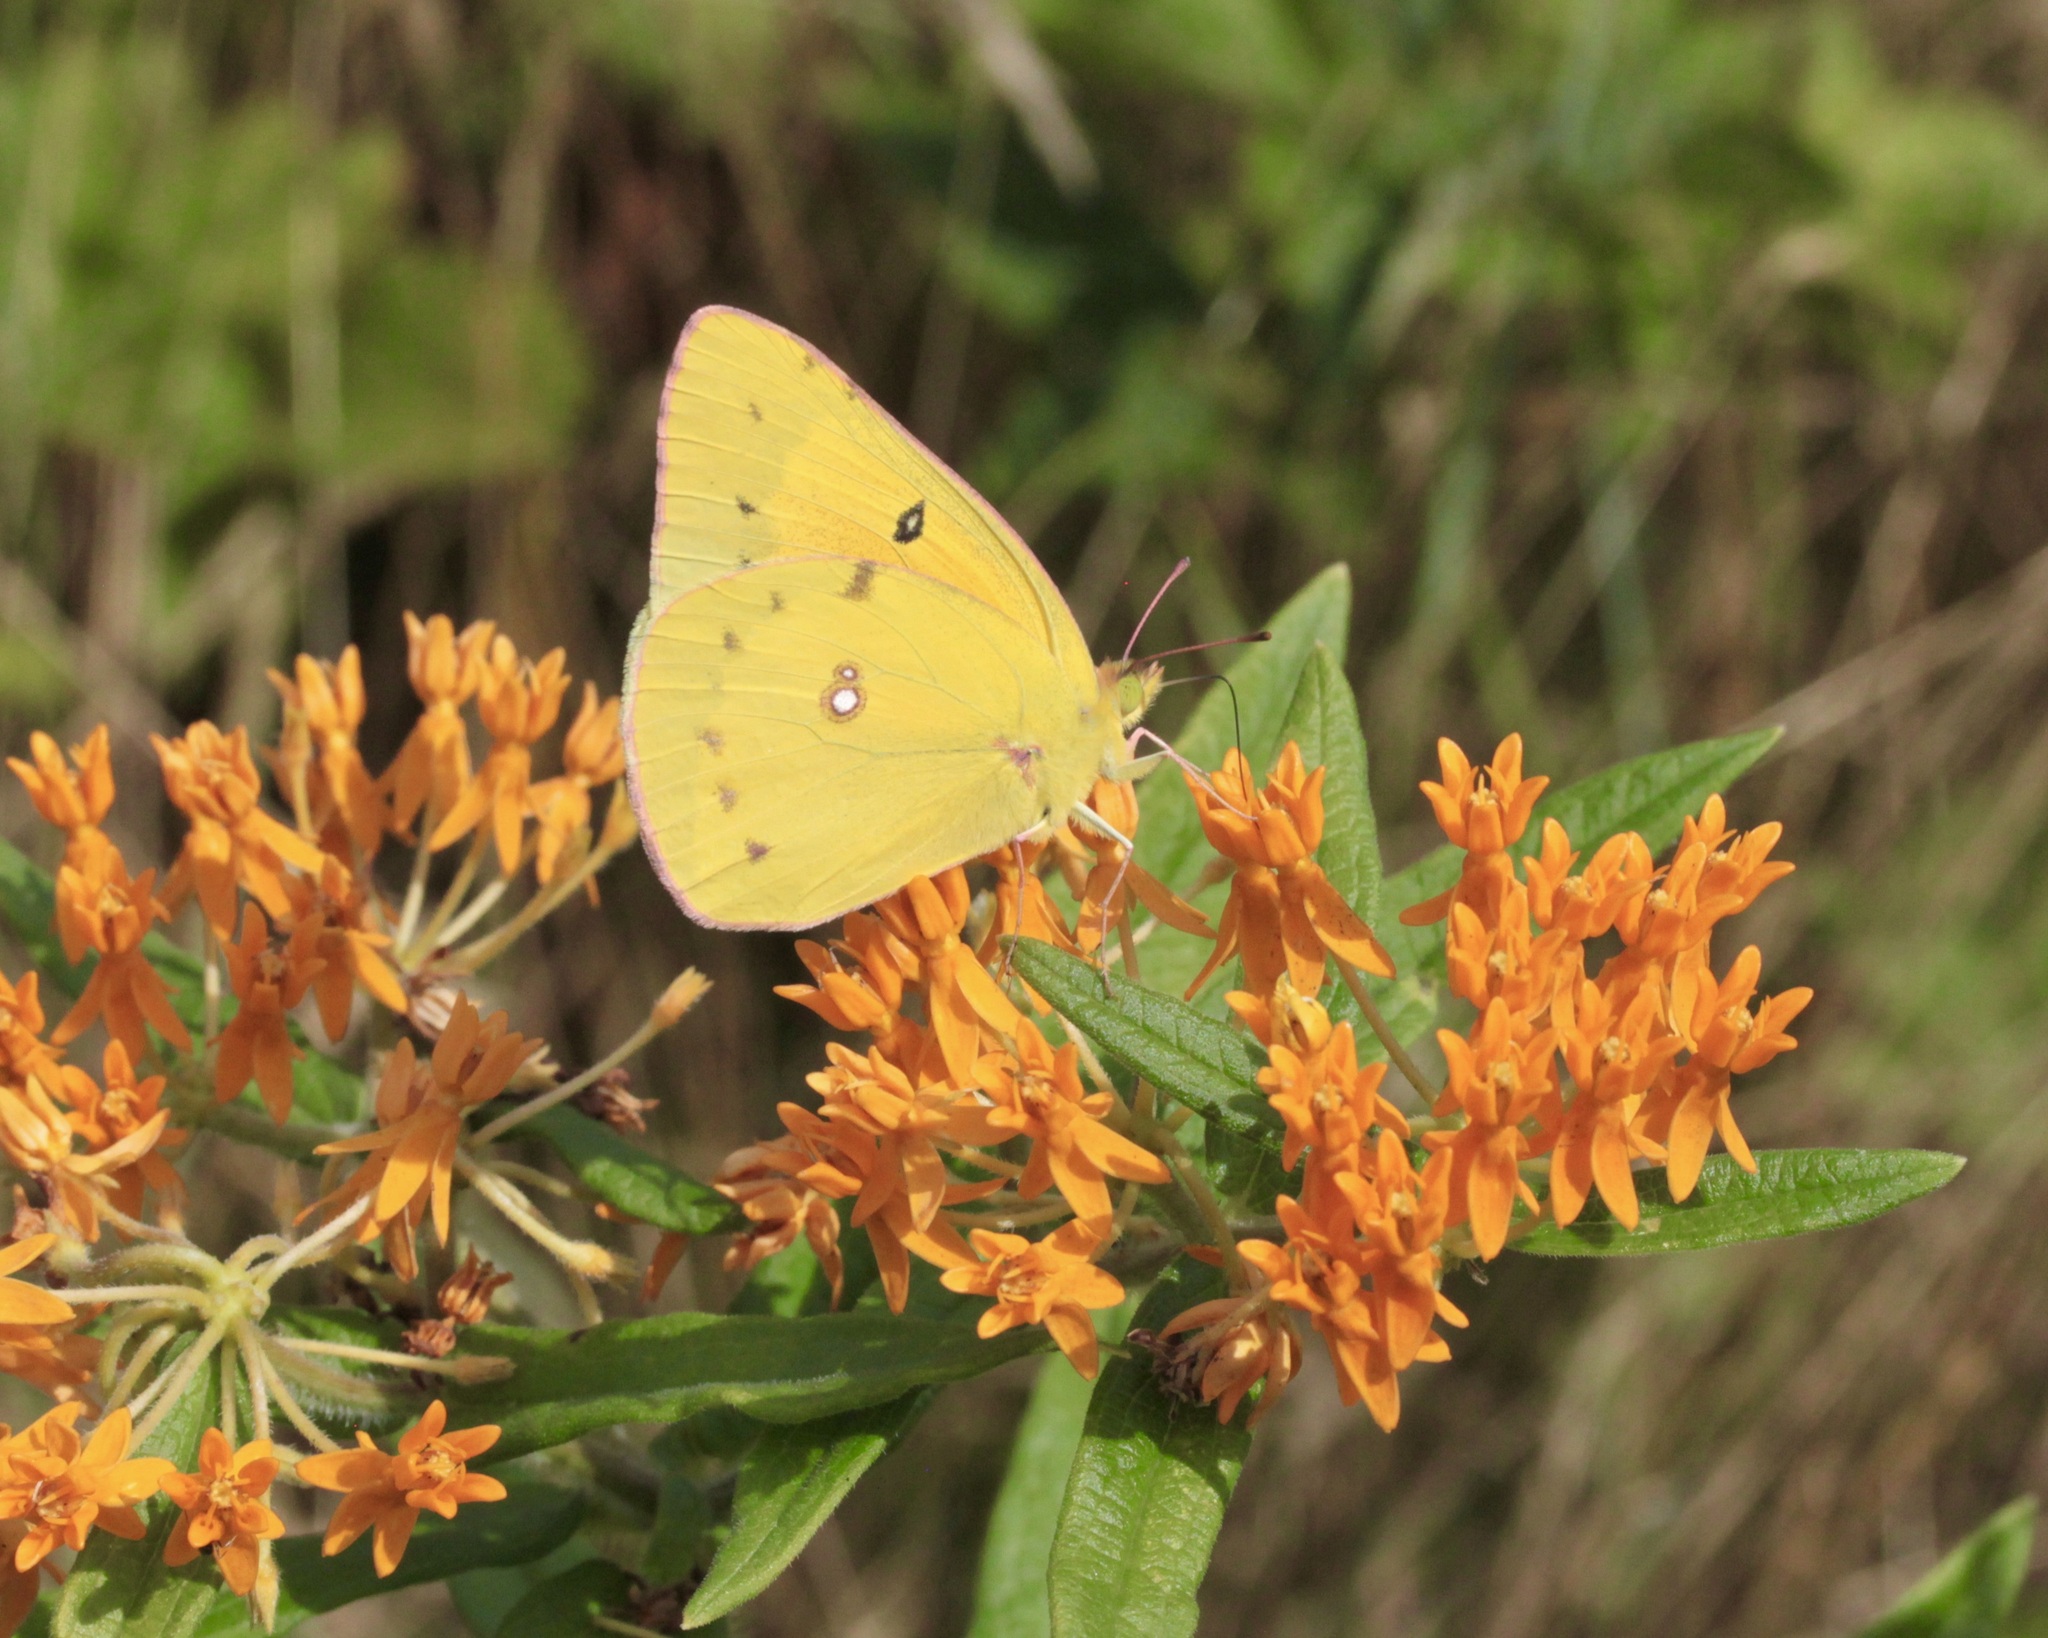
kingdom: Animalia
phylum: Arthropoda
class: Insecta
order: Lepidoptera
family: Pieridae
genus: Colias
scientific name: Colias eurytheme
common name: Alfalfa butterfly
